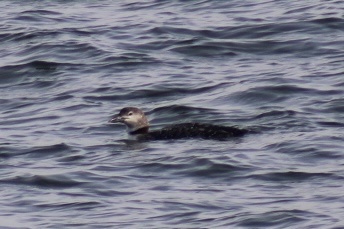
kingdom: Animalia
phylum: Chordata
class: Aves
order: Gaviiformes
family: Gaviidae
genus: Gavia
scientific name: Gavia immer
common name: Common loon
